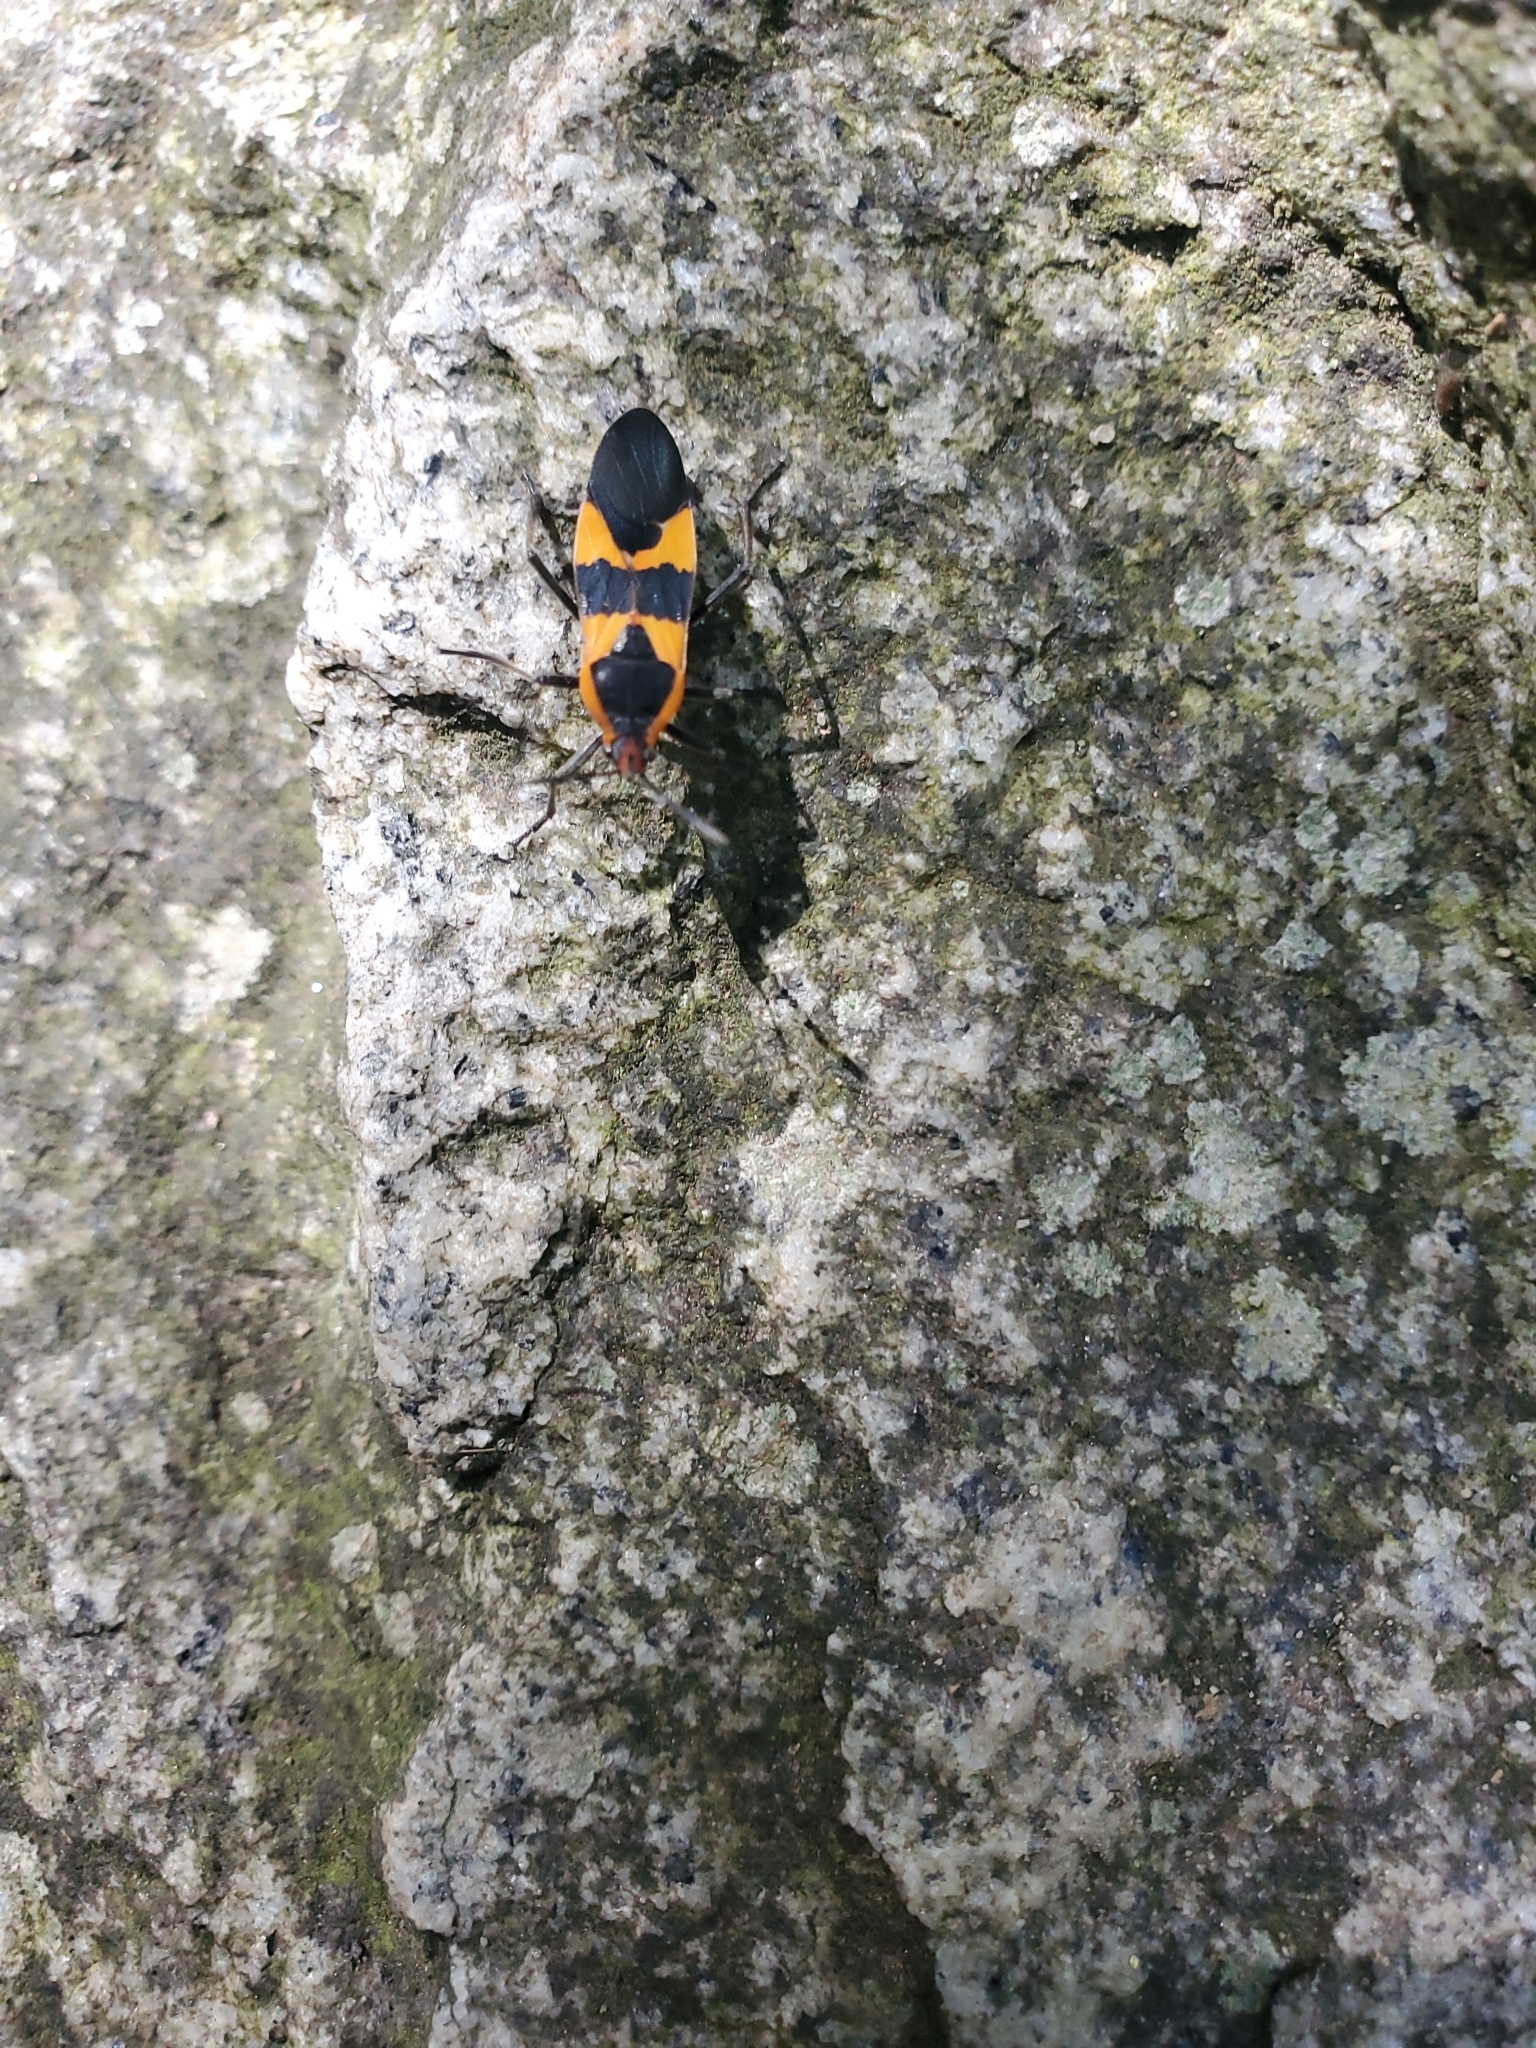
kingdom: Animalia
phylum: Arthropoda
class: Insecta
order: Hemiptera
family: Lygaeidae
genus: Oncopeltus
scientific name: Oncopeltus fasciatus
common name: Large milkweed bug
